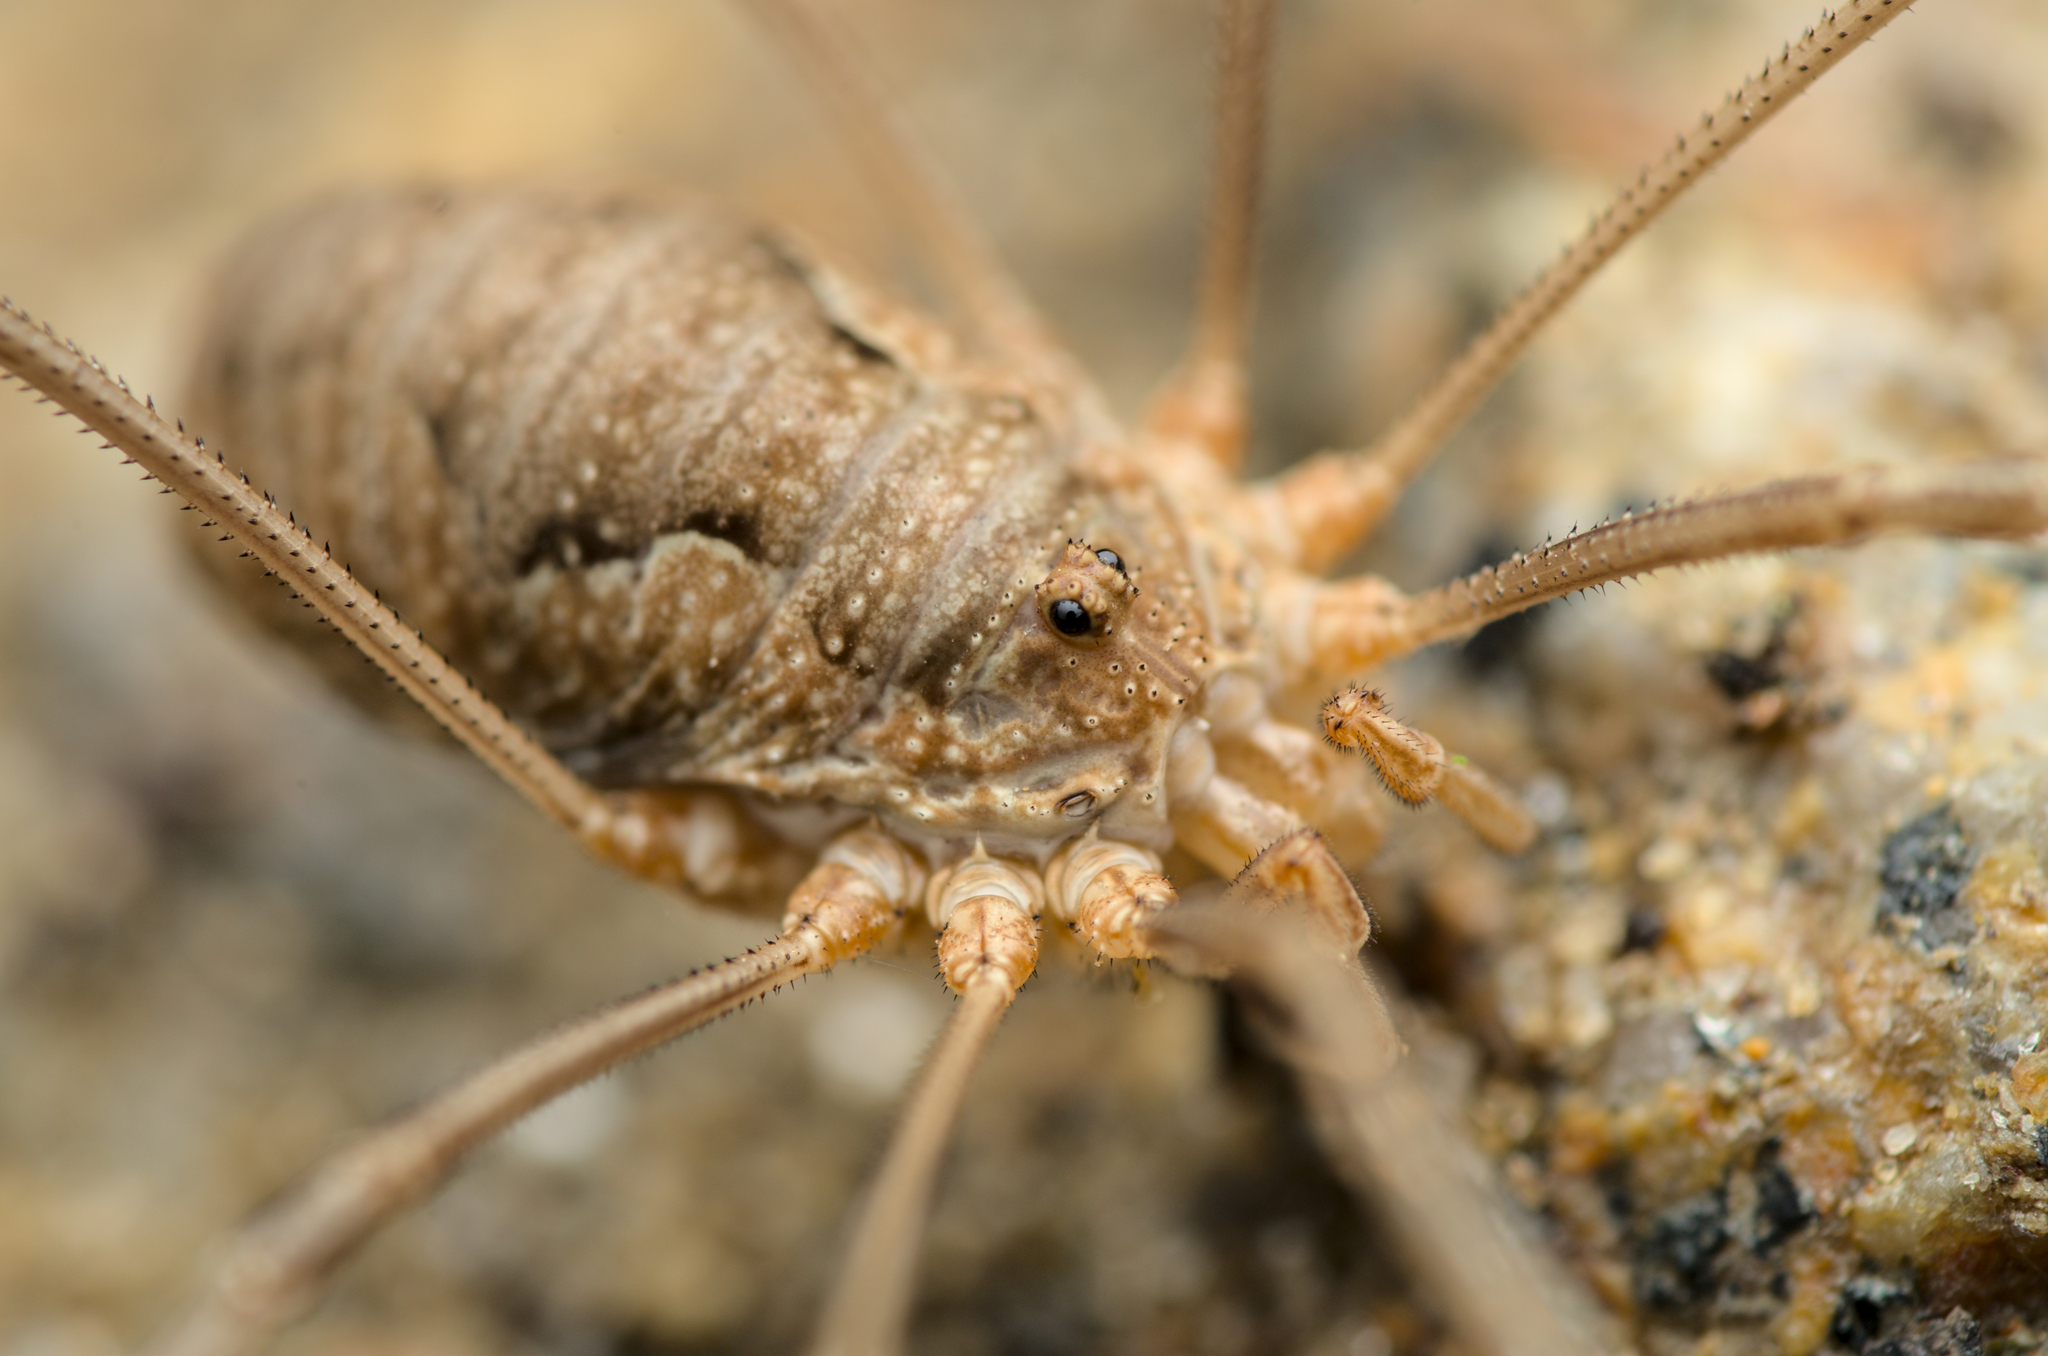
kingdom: Animalia
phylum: Arthropoda
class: Arachnida
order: Opiliones
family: Phalangiidae
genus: Phalangium
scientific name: Phalangium opilio
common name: Daddy longleg
